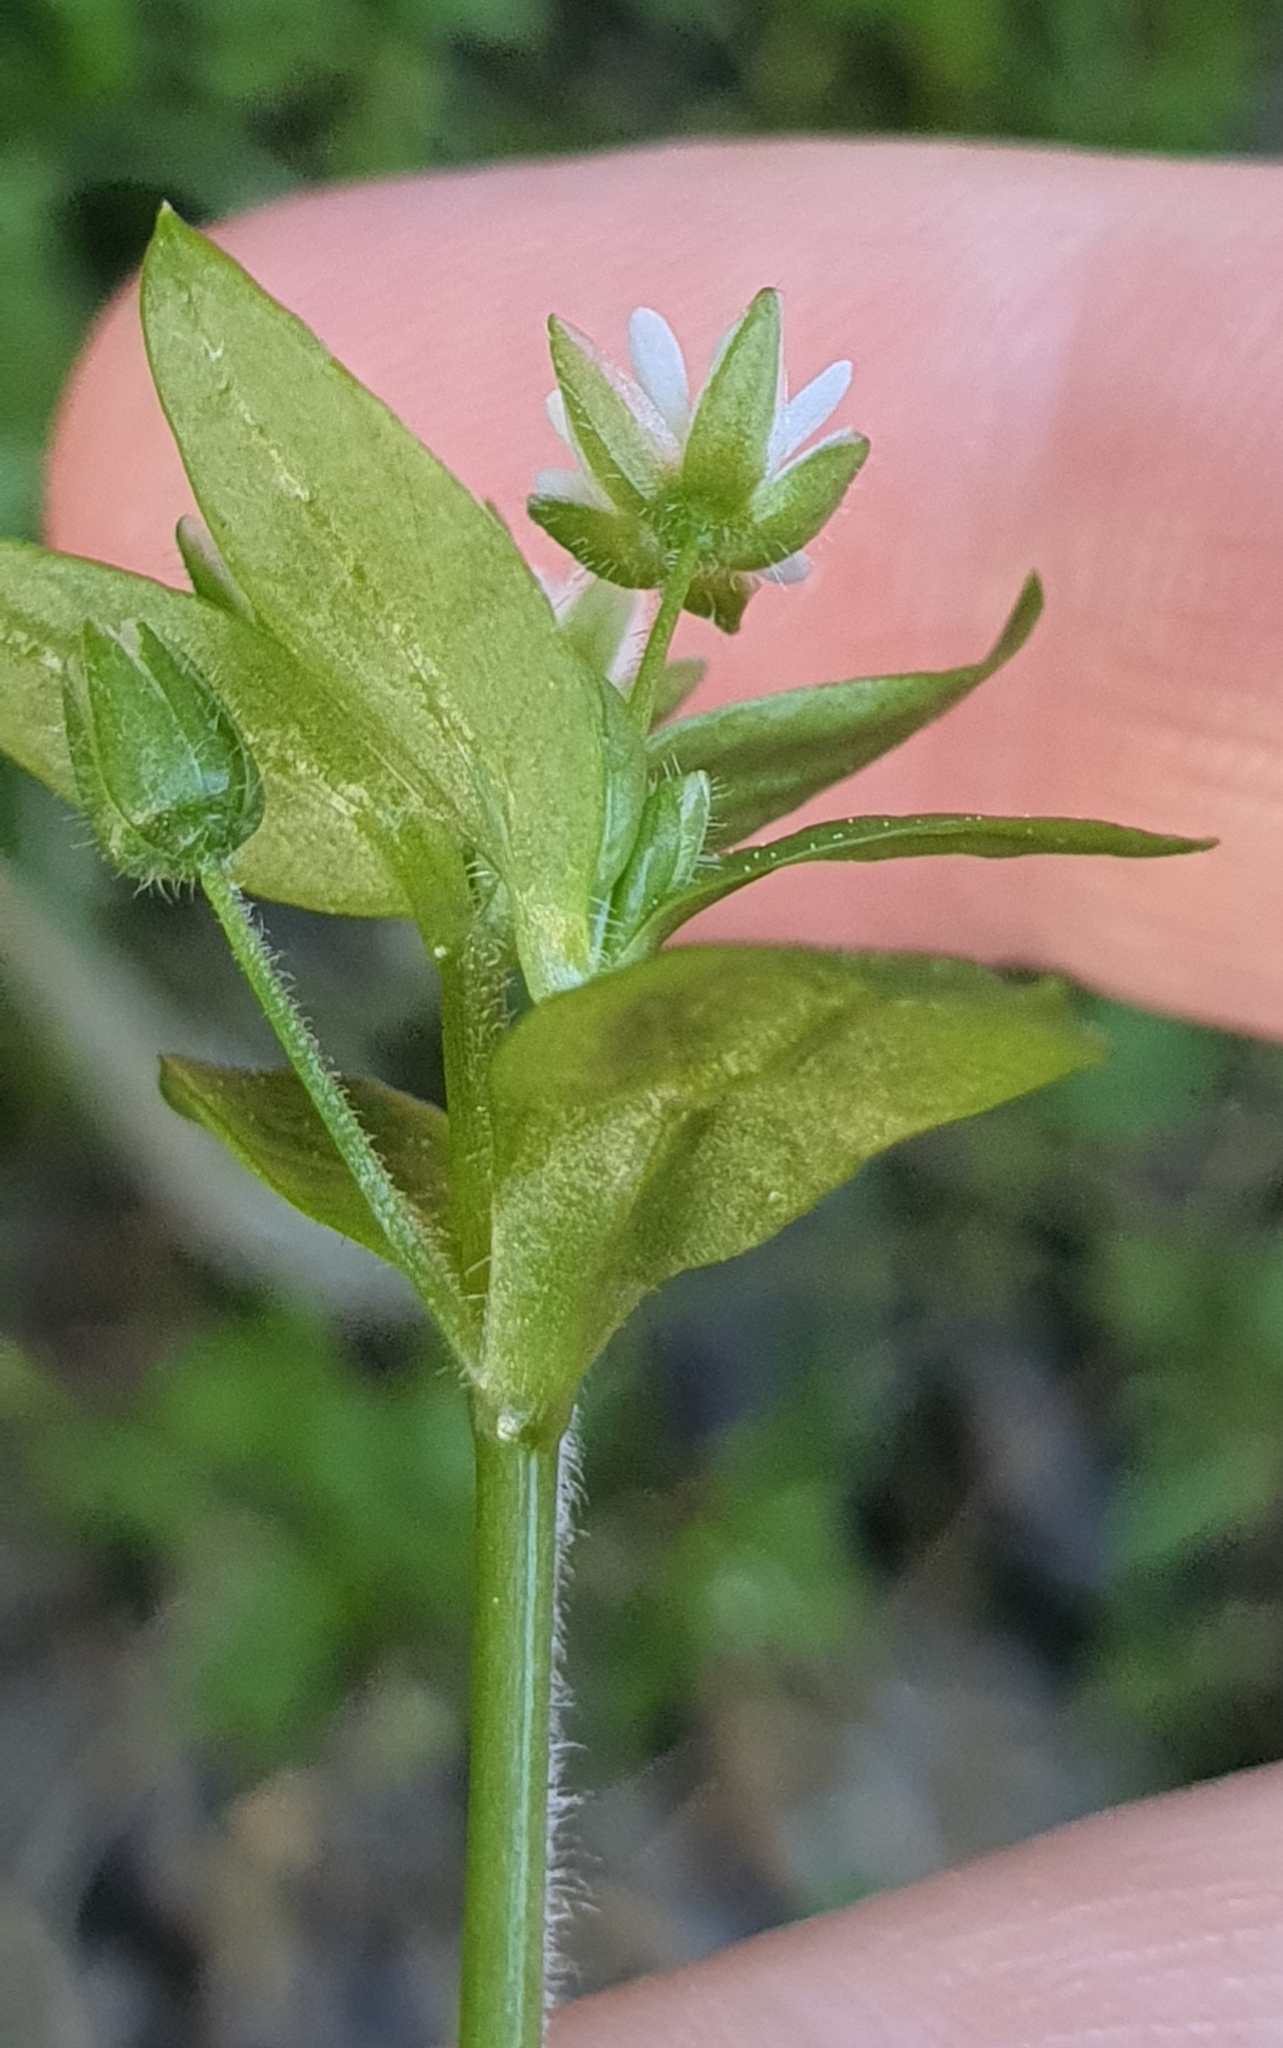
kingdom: Plantae
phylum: Tracheophyta
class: Magnoliopsida
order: Caryophyllales
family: Caryophyllaceae
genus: Stellaria
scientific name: Stellaria media
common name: Common chickweed
